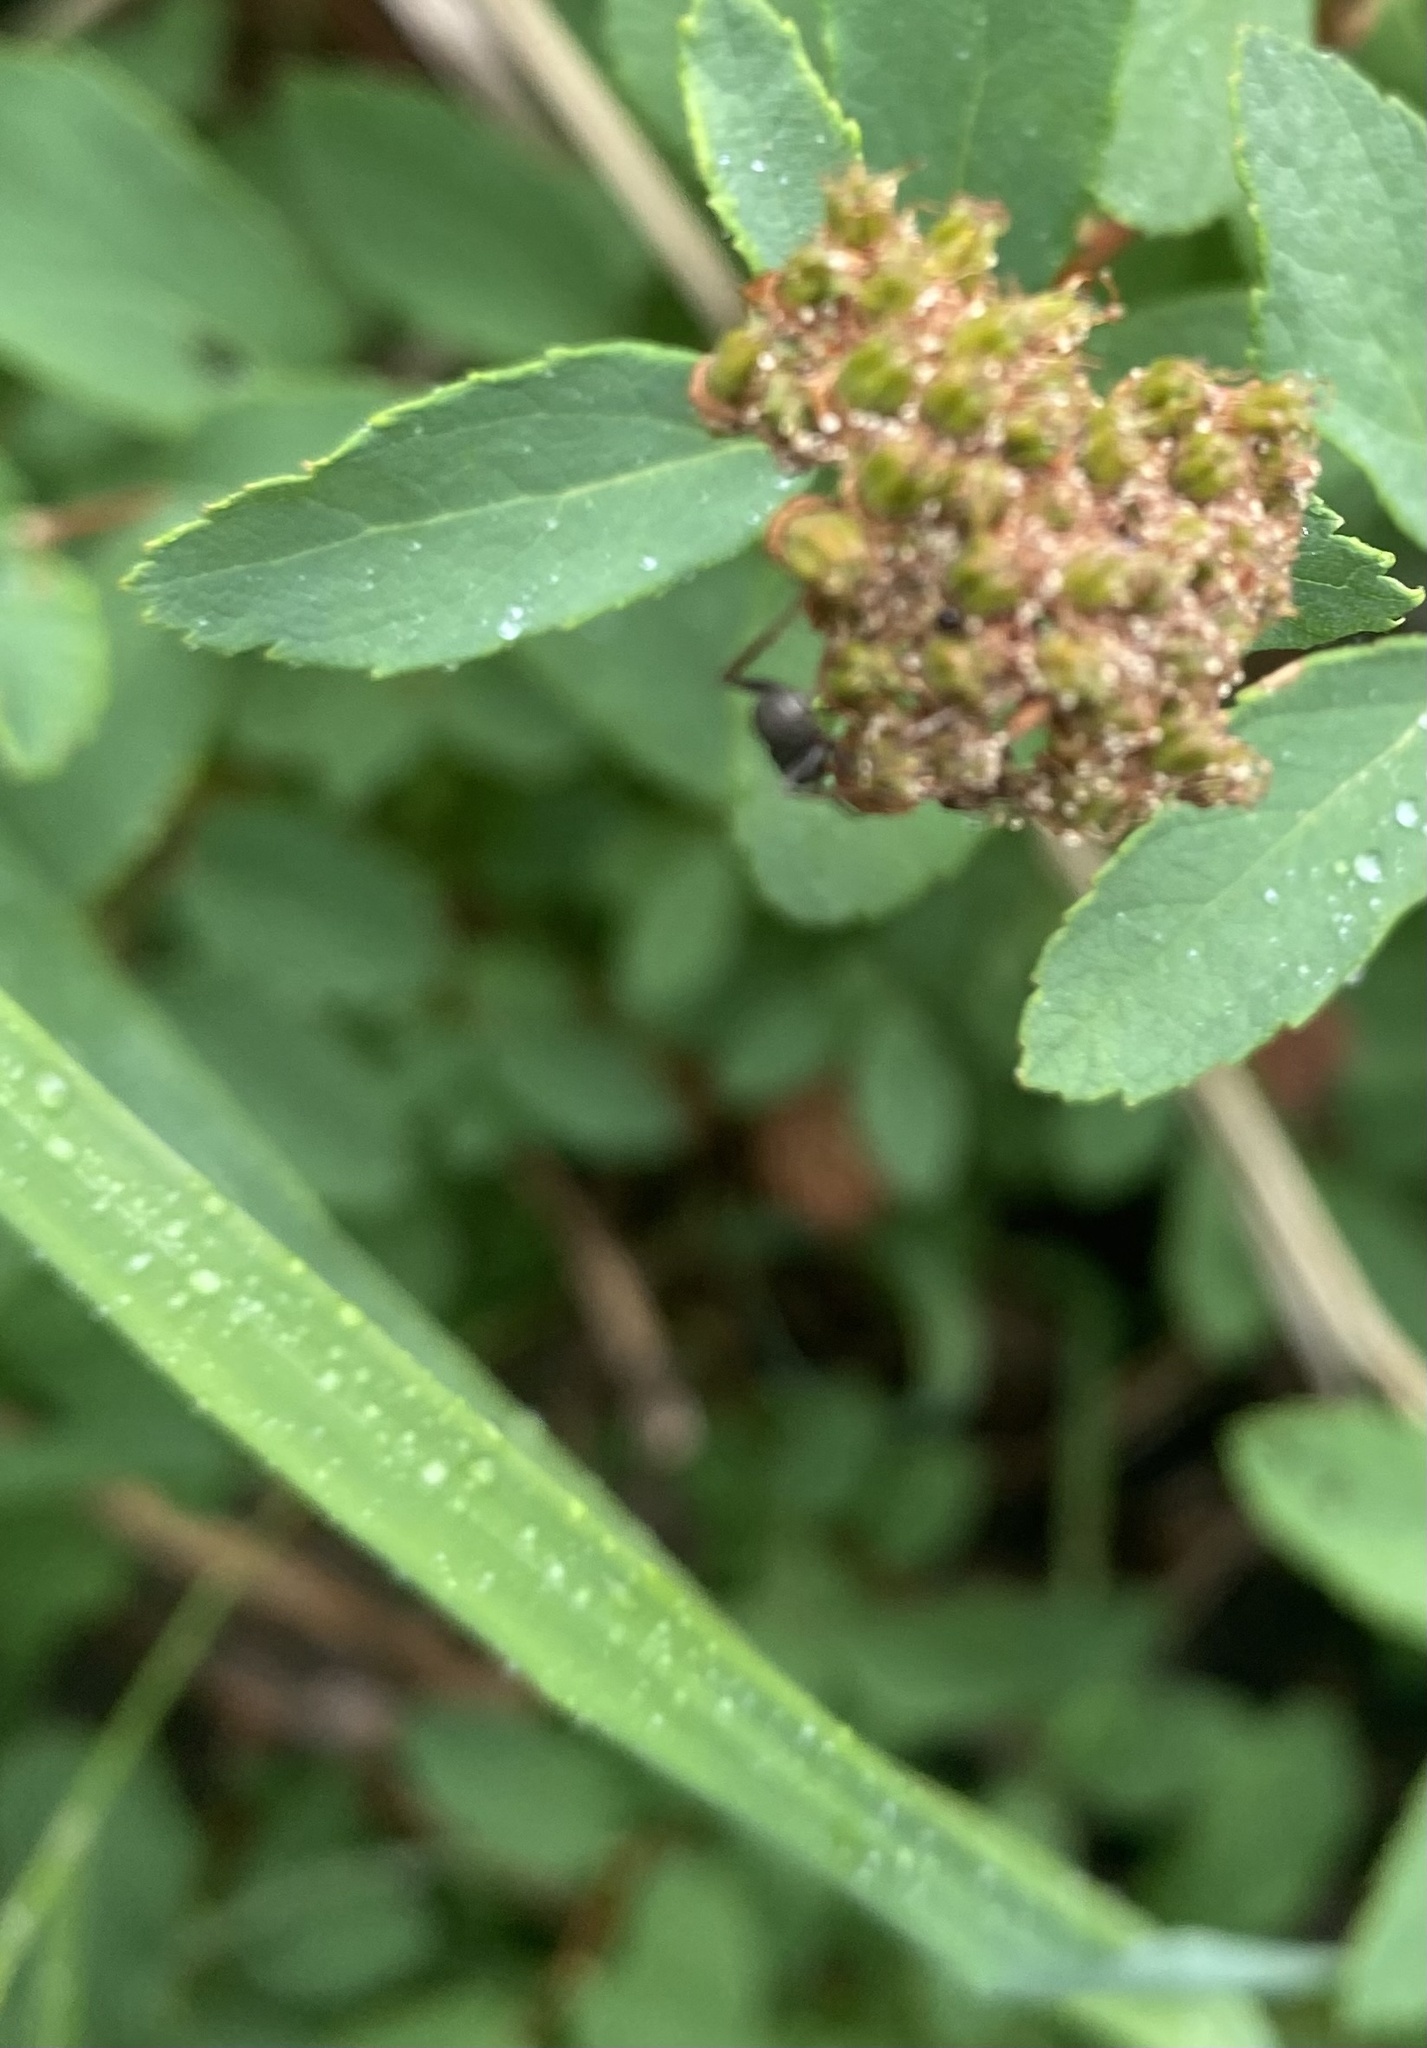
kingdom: Animalia
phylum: Arthropoda
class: Insecta
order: Hymenoptera
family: Formicidae
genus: Formica
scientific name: Formica
